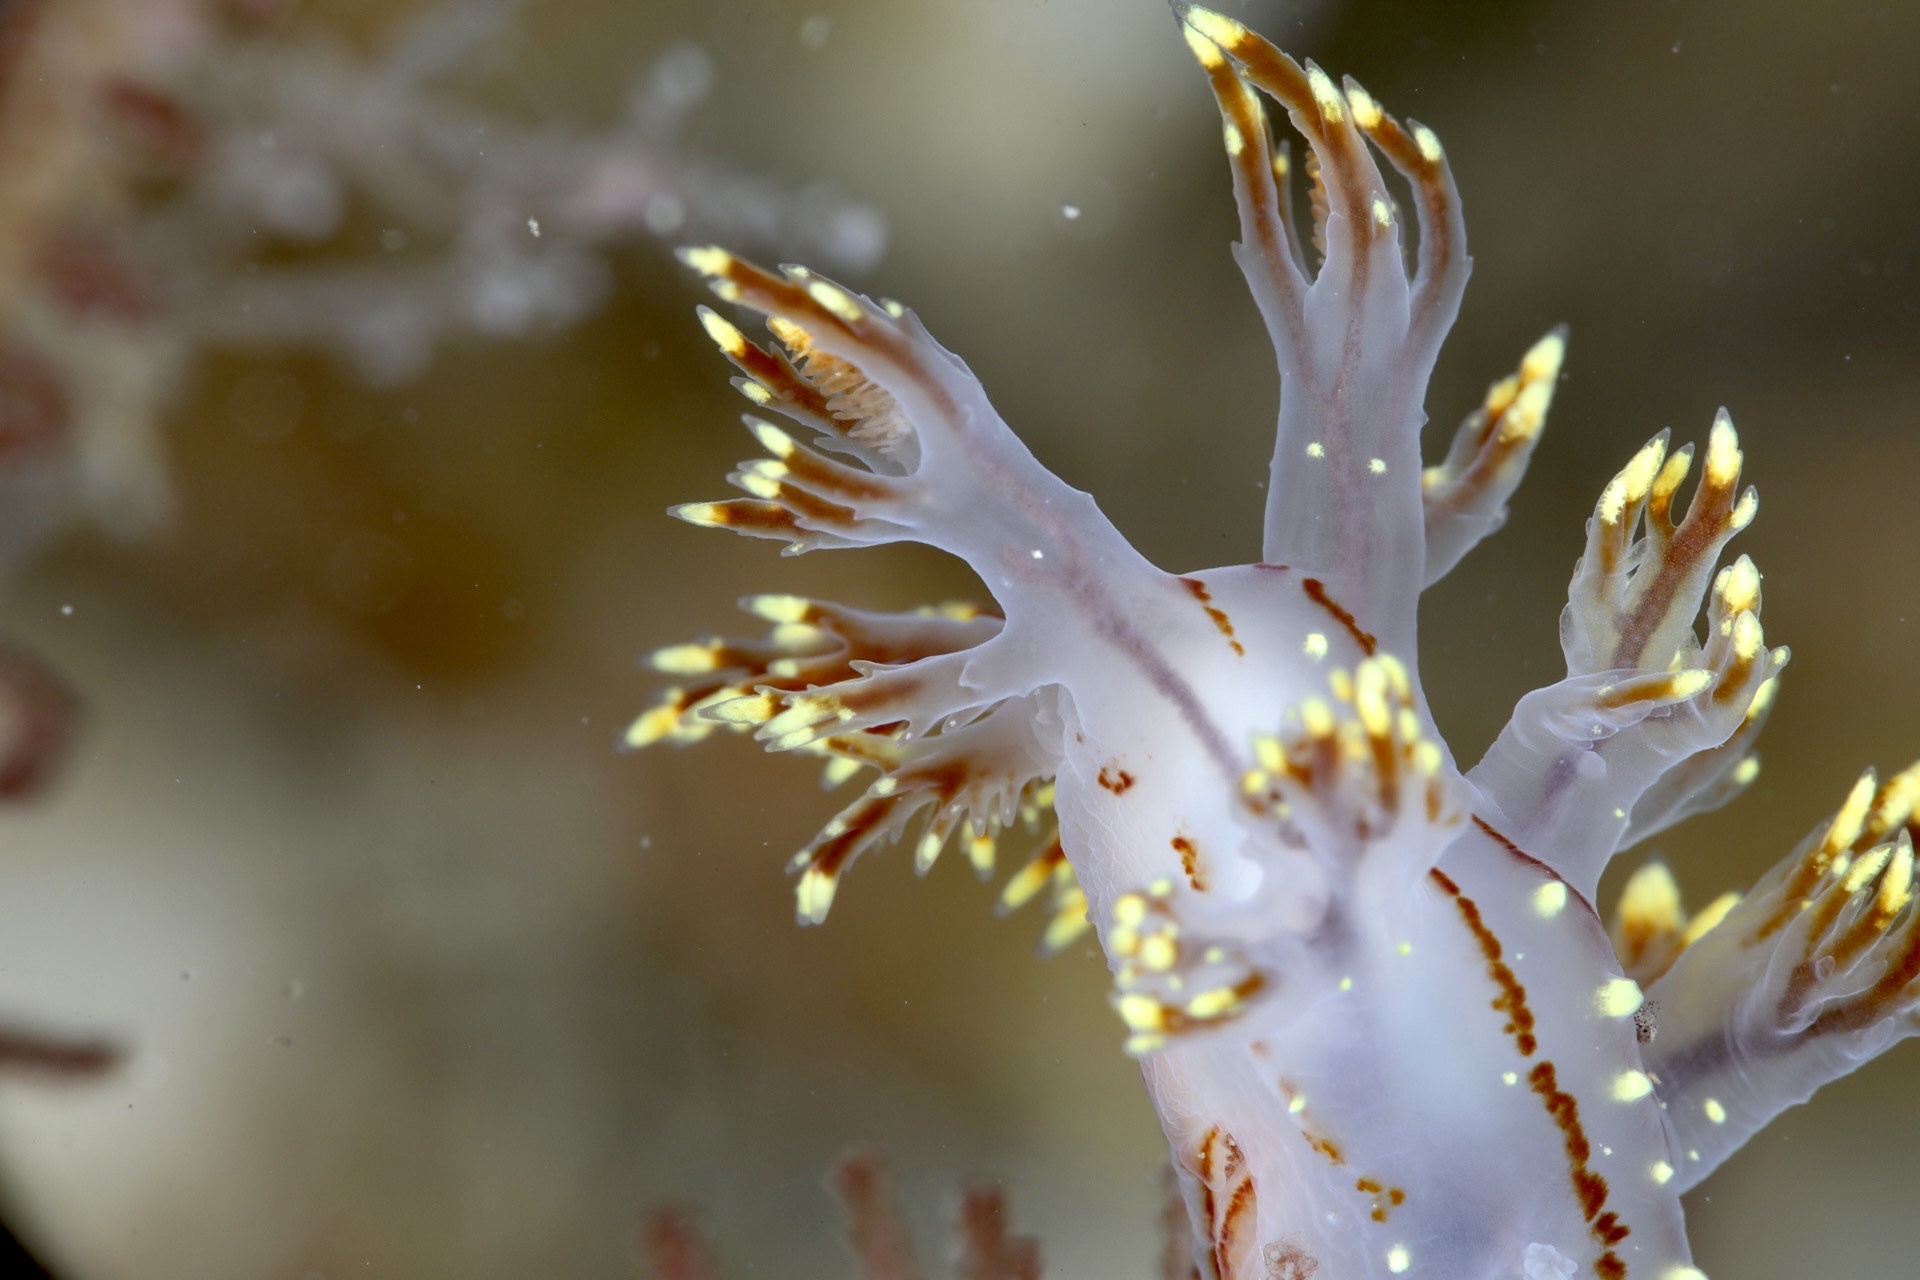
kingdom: Animalia
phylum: Mollusca
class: Gastropoda
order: Nudibranchia
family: Dendronotidae
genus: Dendronotus
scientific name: Dendronotus yrjargul
